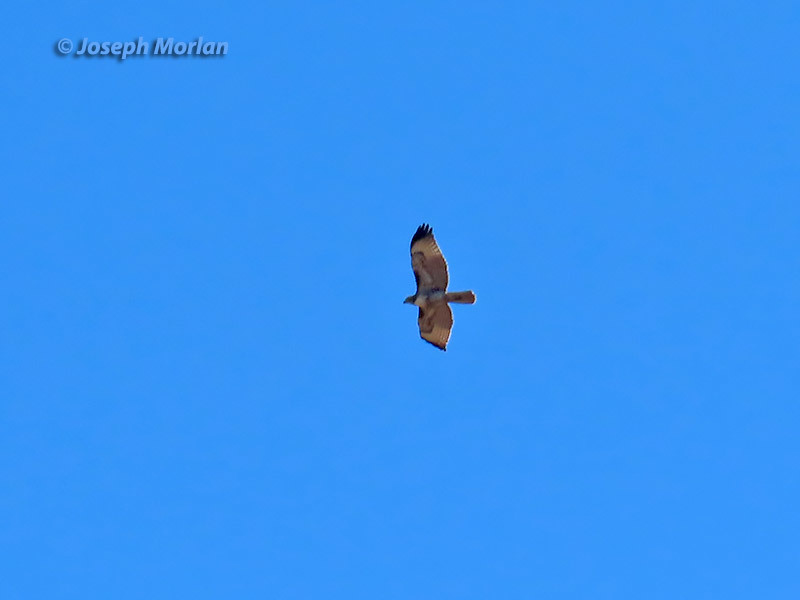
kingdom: Animalia
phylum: Chordata
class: Aves
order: Accipitriformes
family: Accipitridae
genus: Buteo
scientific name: Buteo jamaicensis
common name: Red-tailed hawk
